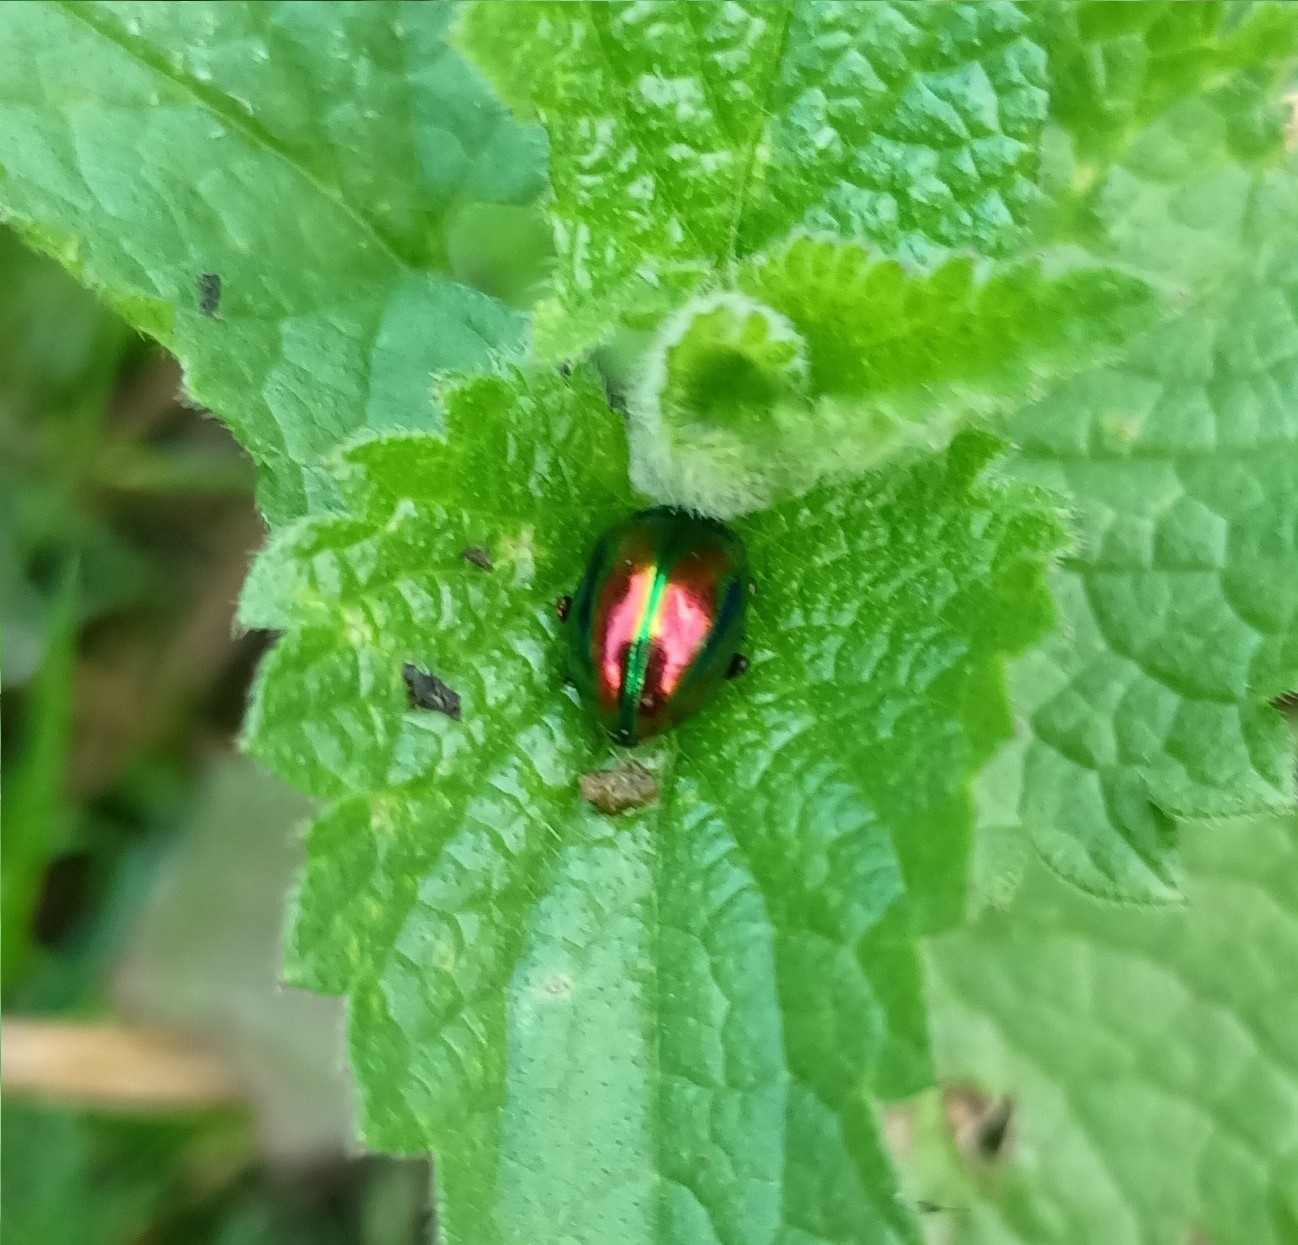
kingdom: Animalia
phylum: Arthropoda
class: Insecta
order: Coleoptera
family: Chrysomelidae
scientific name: Chrysomelidae
